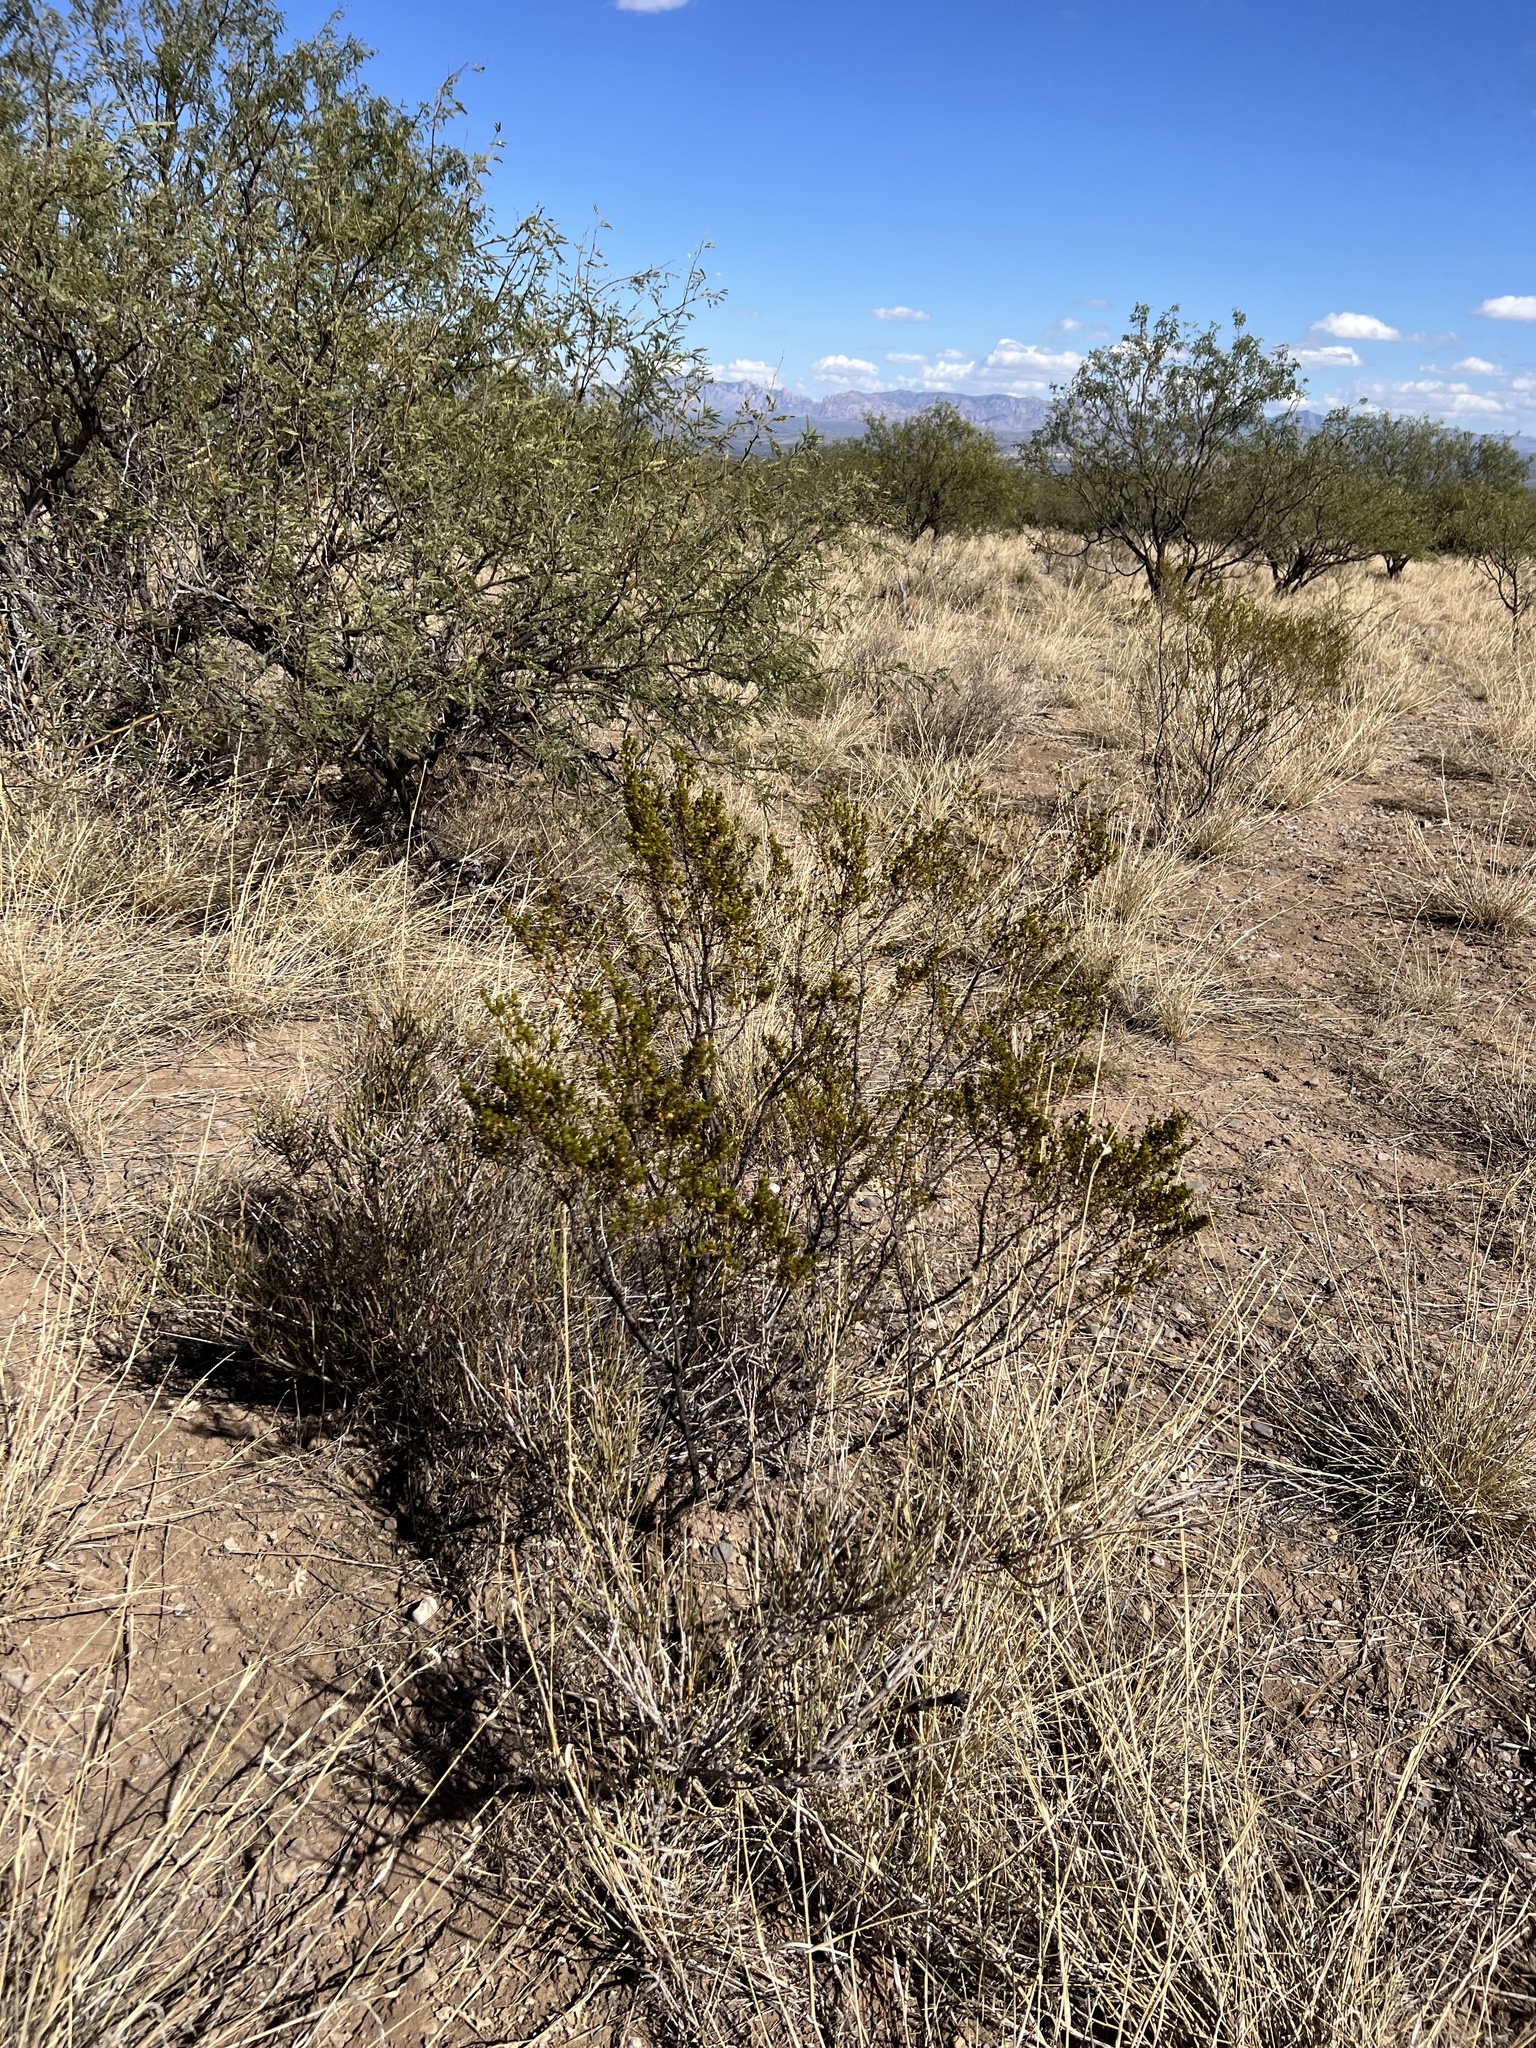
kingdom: Plantae
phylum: Tracheophyta
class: Magnoliopsida
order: Zygophyllales
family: Zygophyllaceae
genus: Larrea
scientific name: Larrea tridentata
